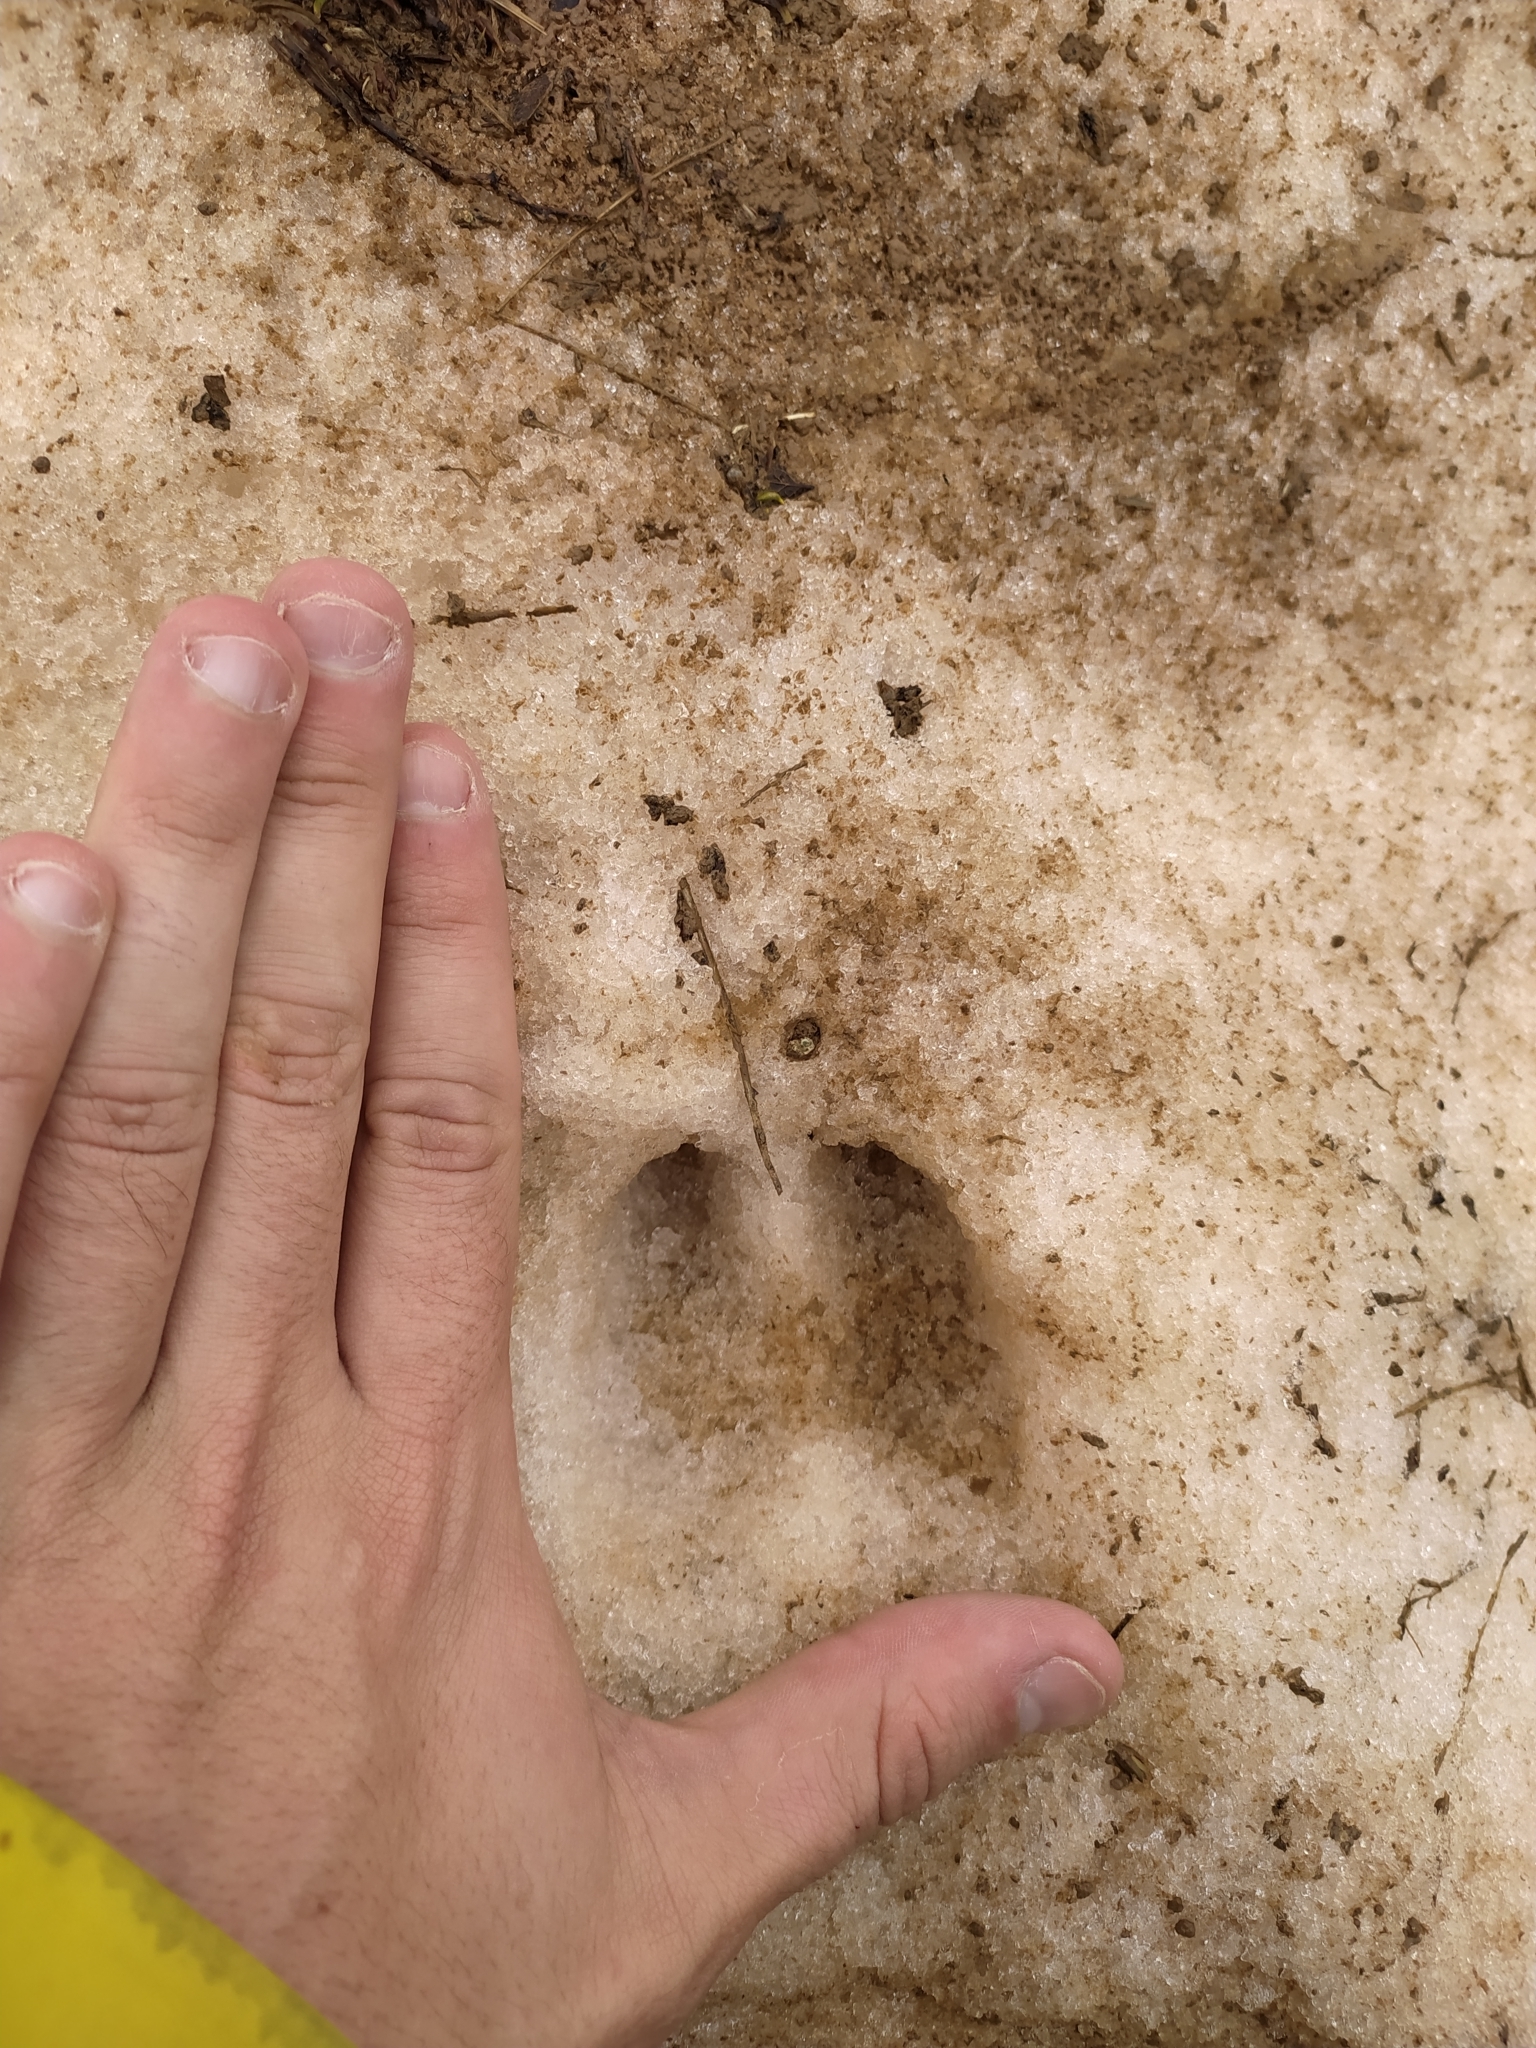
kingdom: Animalia
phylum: Chordata
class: Mammalia
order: Artiodactyla
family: Bovidae
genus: Capra
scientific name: Capra hircus
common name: Domestic goat
